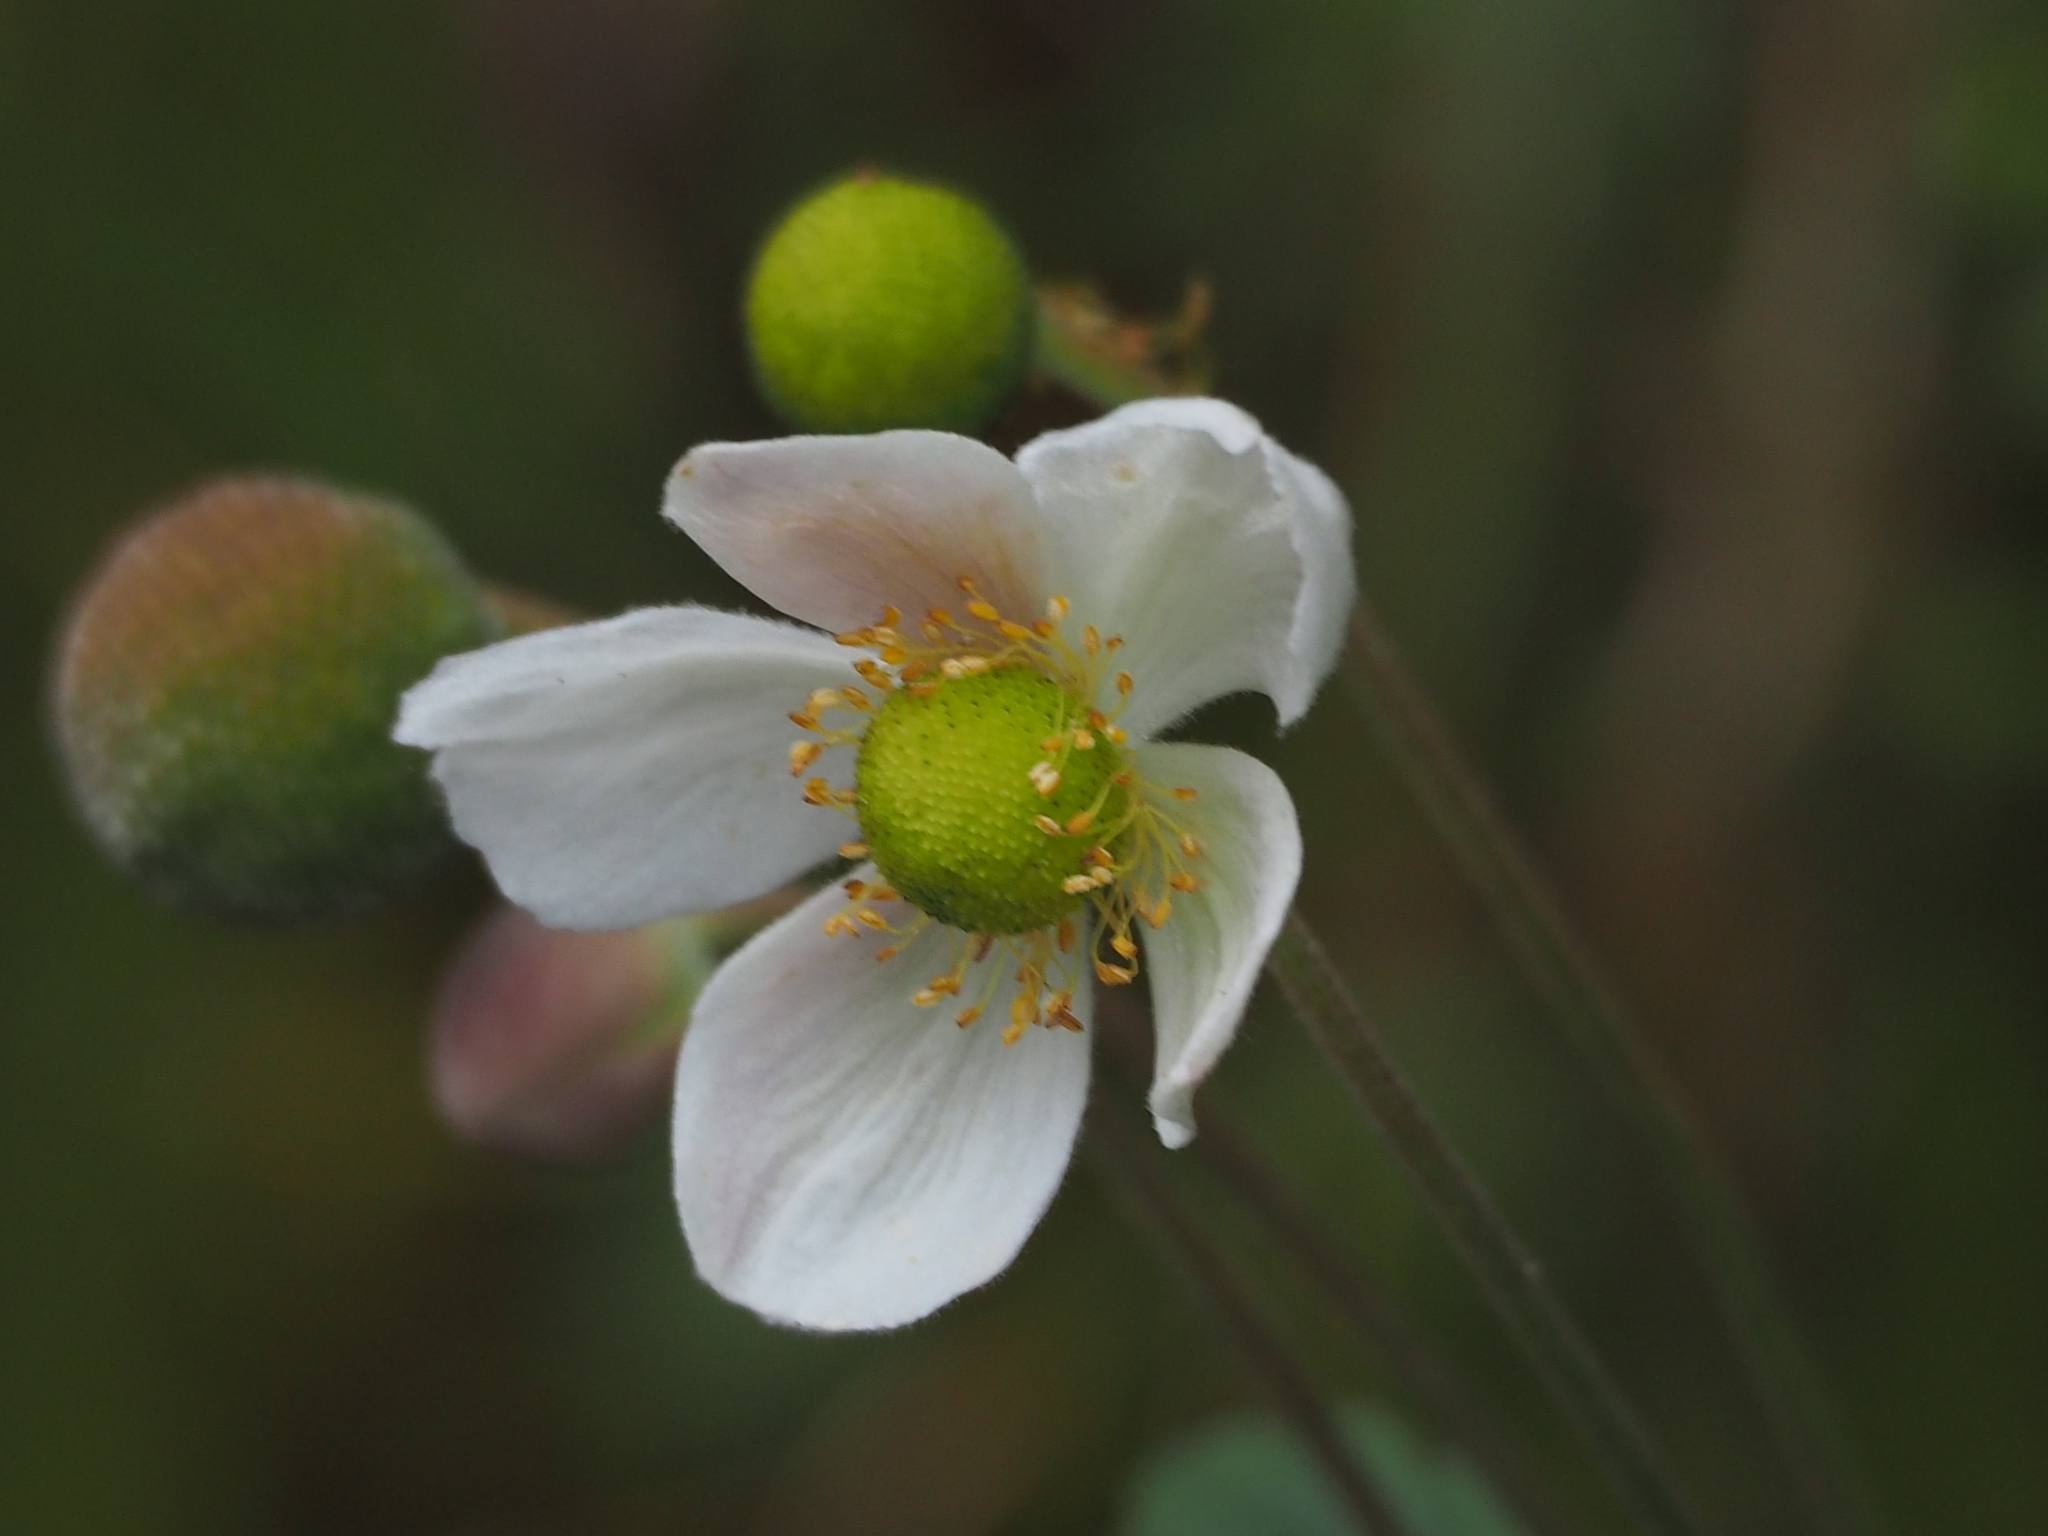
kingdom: Plantae
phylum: Tracheophyta
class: Magnoliopsida
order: Ranunculales
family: Ranunculaceae
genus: Eriocapitella
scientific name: Eriocapitella vitifolia
